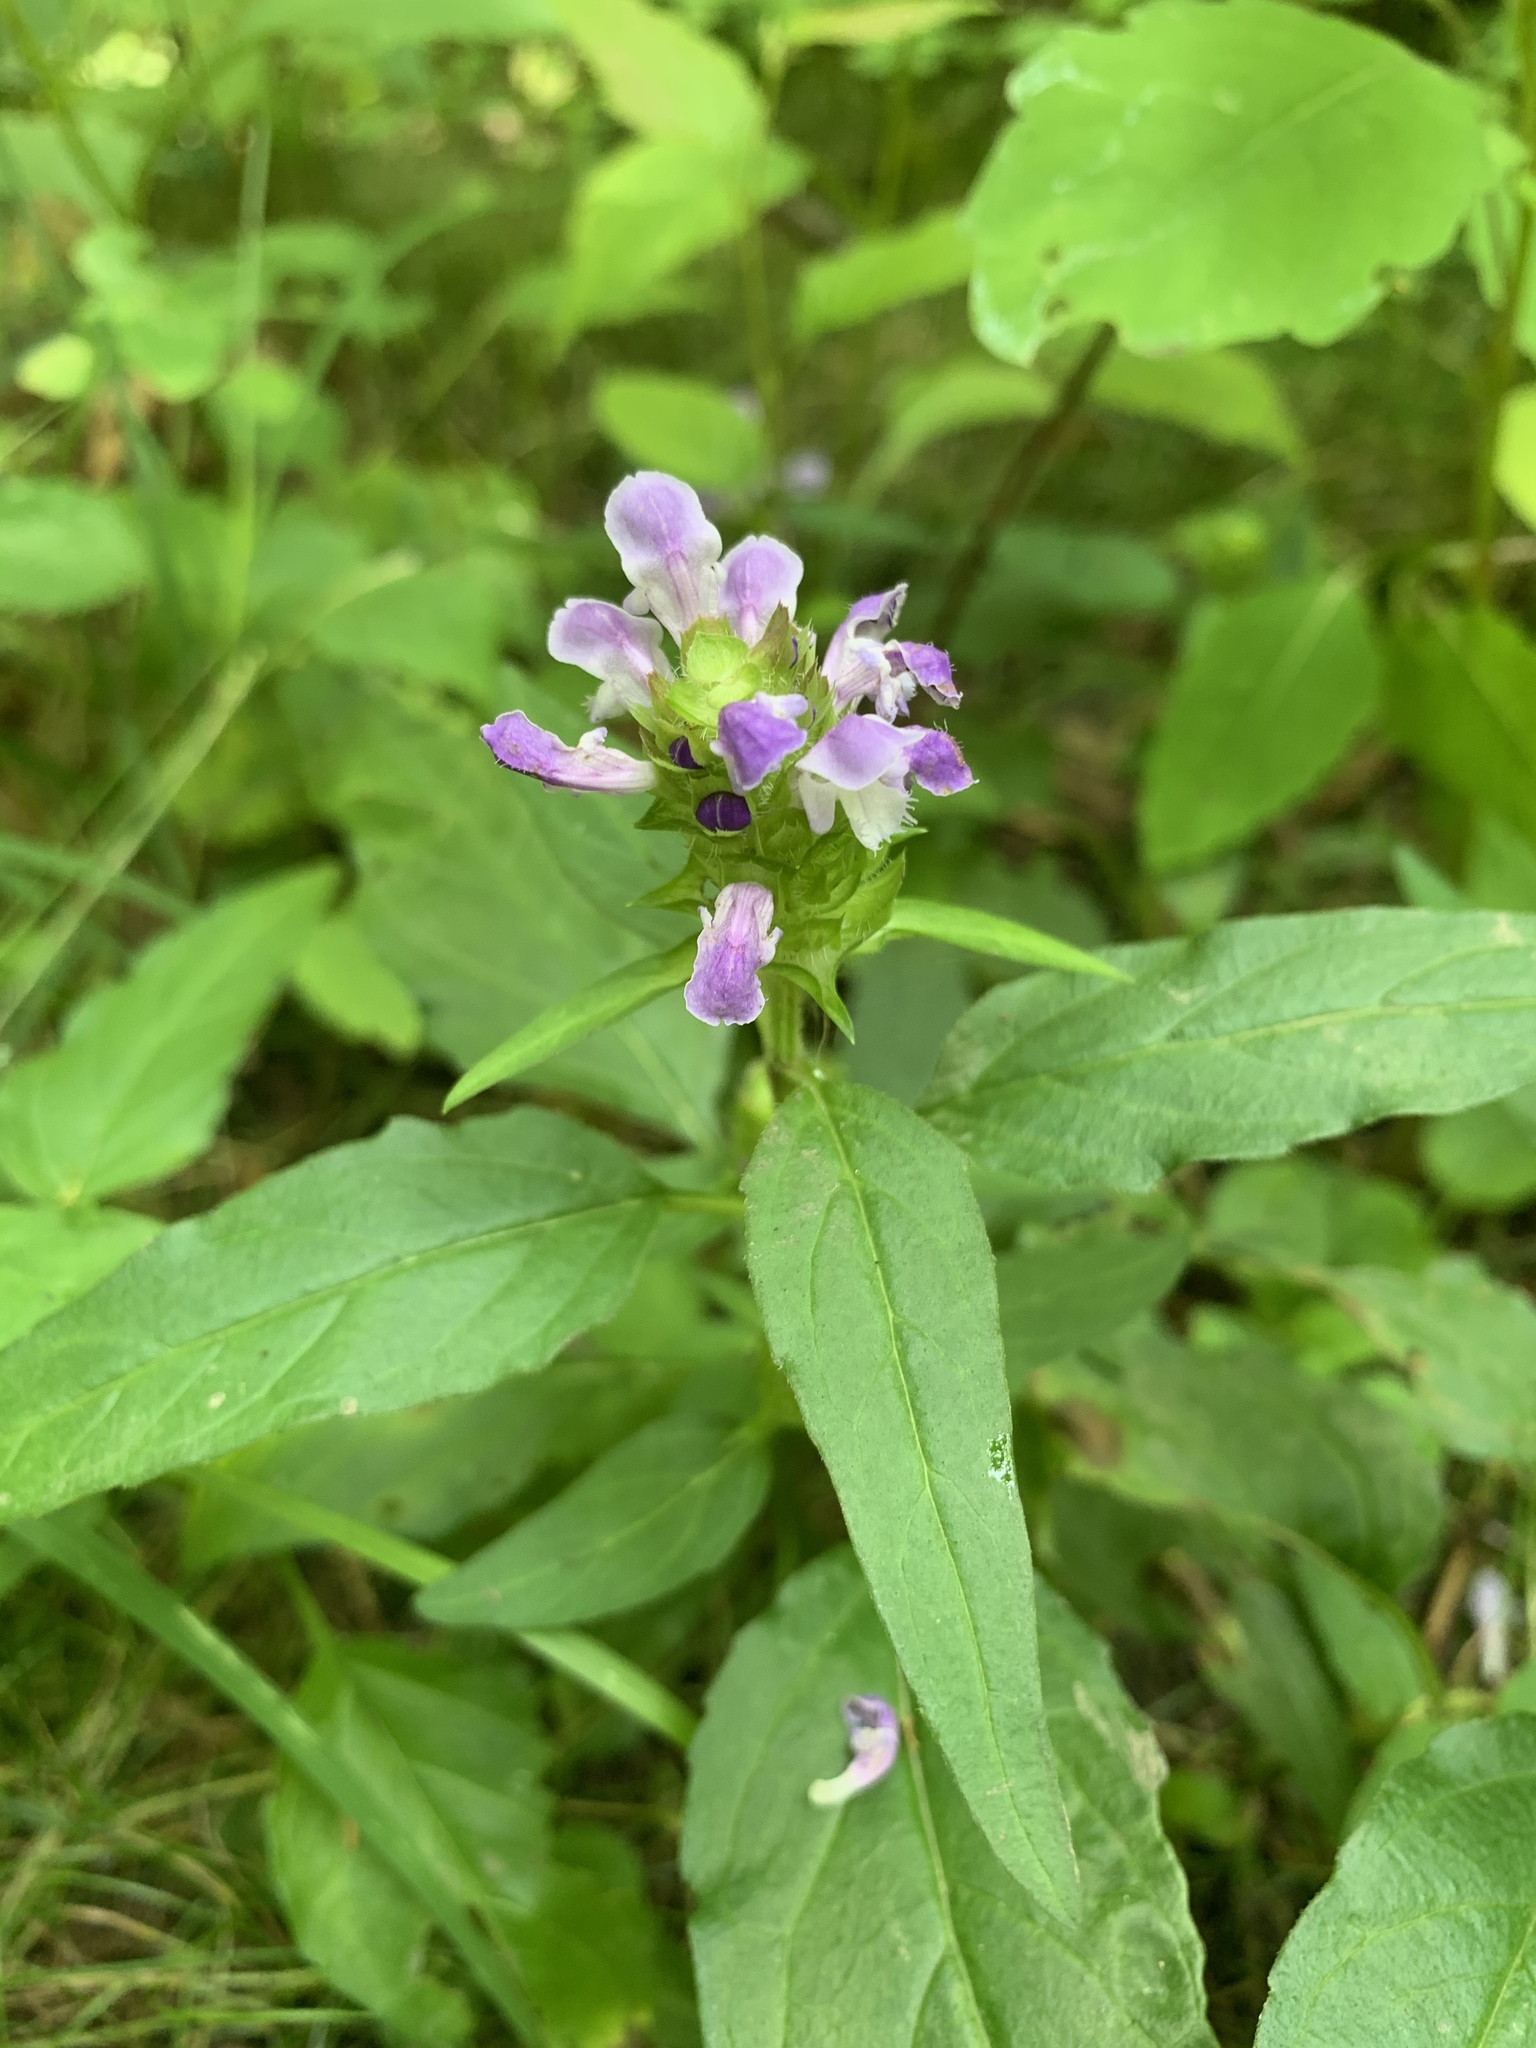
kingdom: Plantae
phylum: Tracheophyta
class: Magnoliopsida
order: Lamiales
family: Lamiaceae
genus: Prunella
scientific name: Prunella vulgaris
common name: Heal-all
